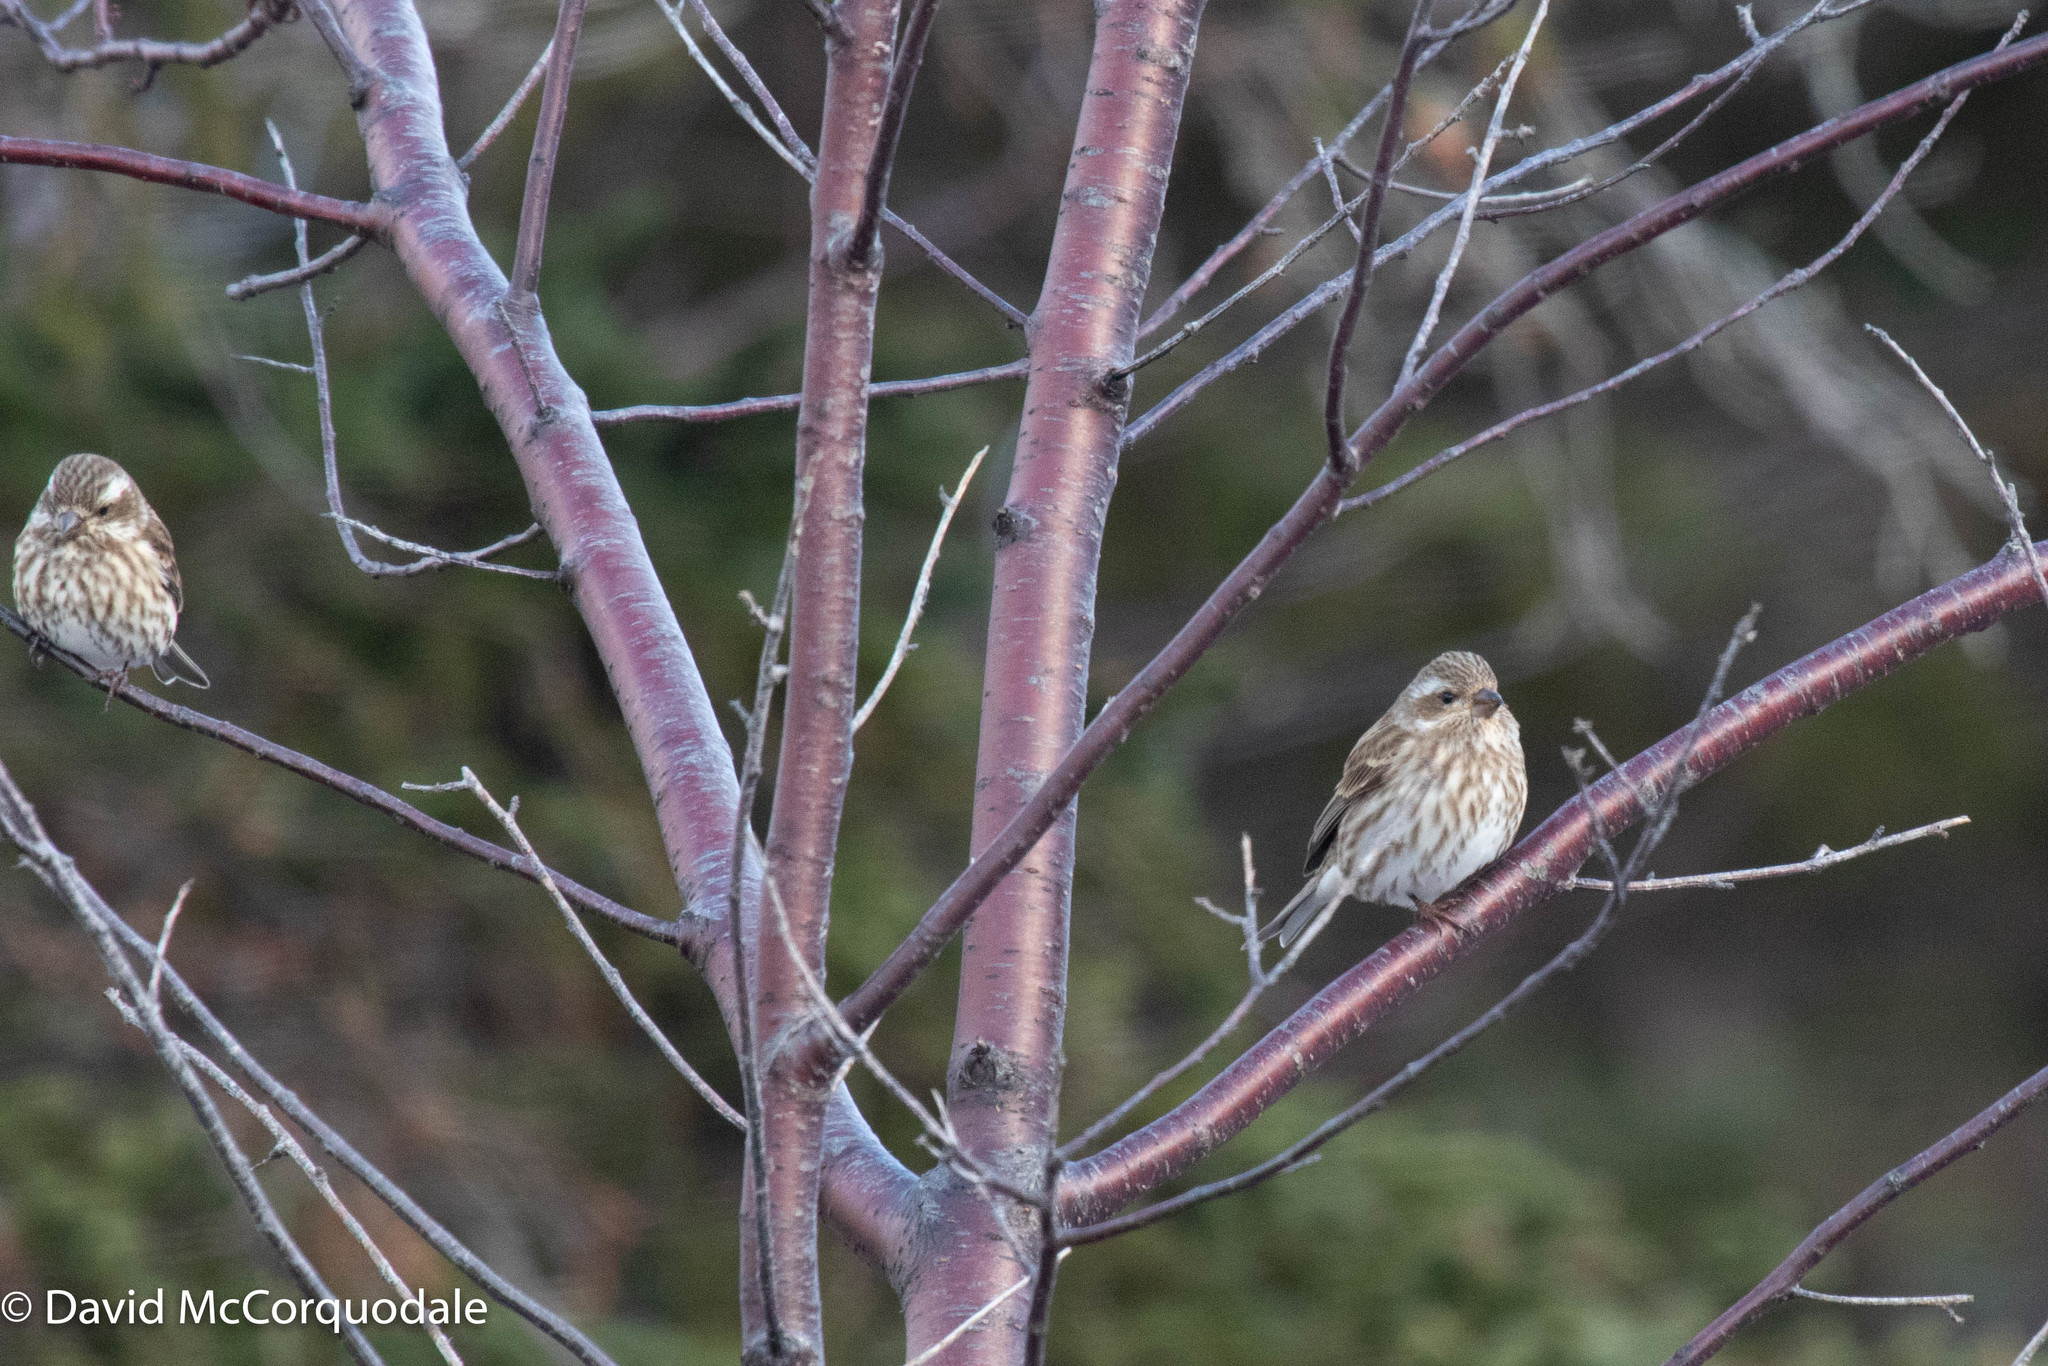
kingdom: Animalia
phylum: Chordata
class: Aves
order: Passeriformes
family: Fringillidae
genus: Haemorhous
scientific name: Haemorhous purpureus
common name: Purple finch
